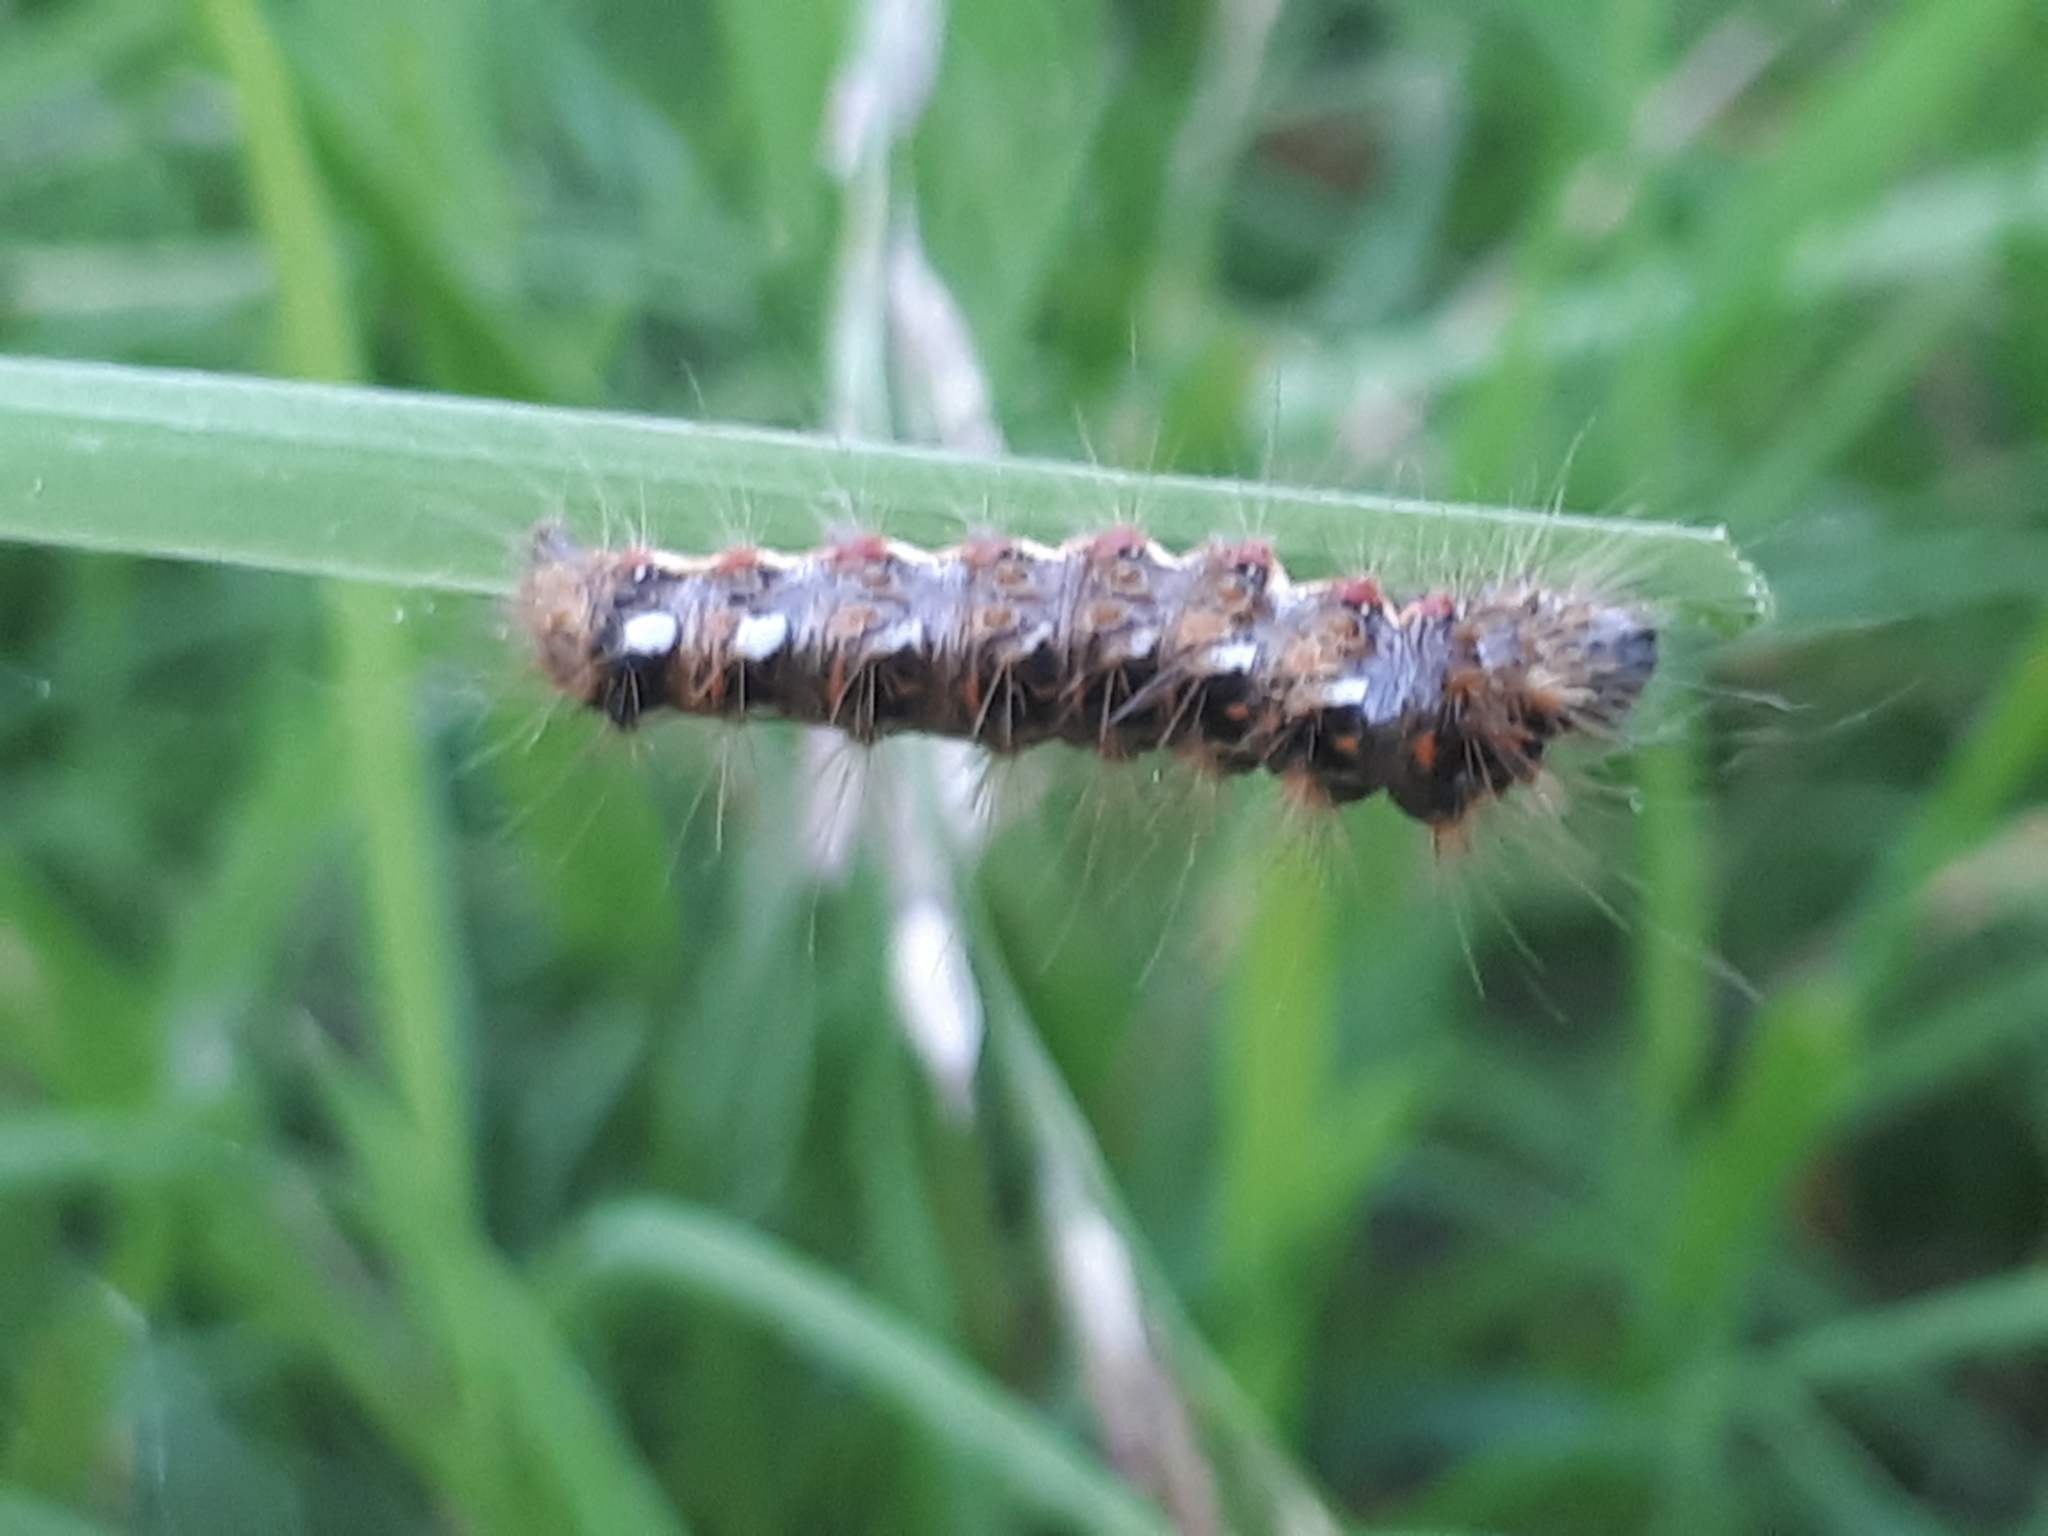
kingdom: Animalia
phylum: Arthropoda
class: Insecta
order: Lepidoptera
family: Noctuidae
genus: Acronicta
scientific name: Acronicta rumicis
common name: Knot grass
